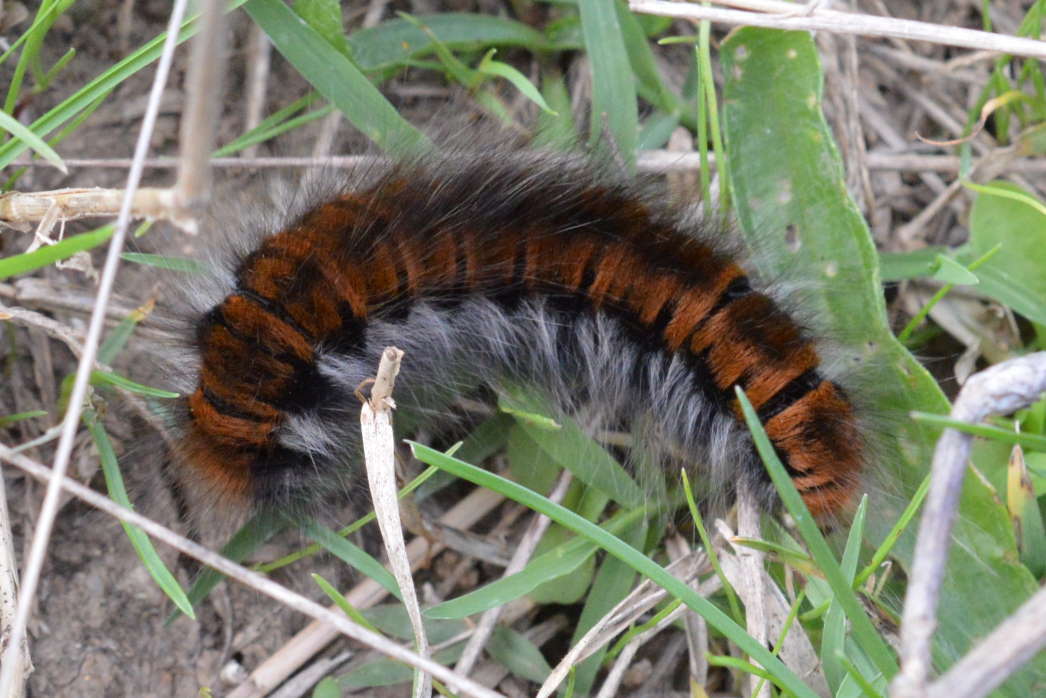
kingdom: Animalia
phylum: Arthropoda
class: Insecta
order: Lepidoptera
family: Lasiocampidae
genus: Macrothylacia
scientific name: Macrothylacia rubi
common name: Fox moth
